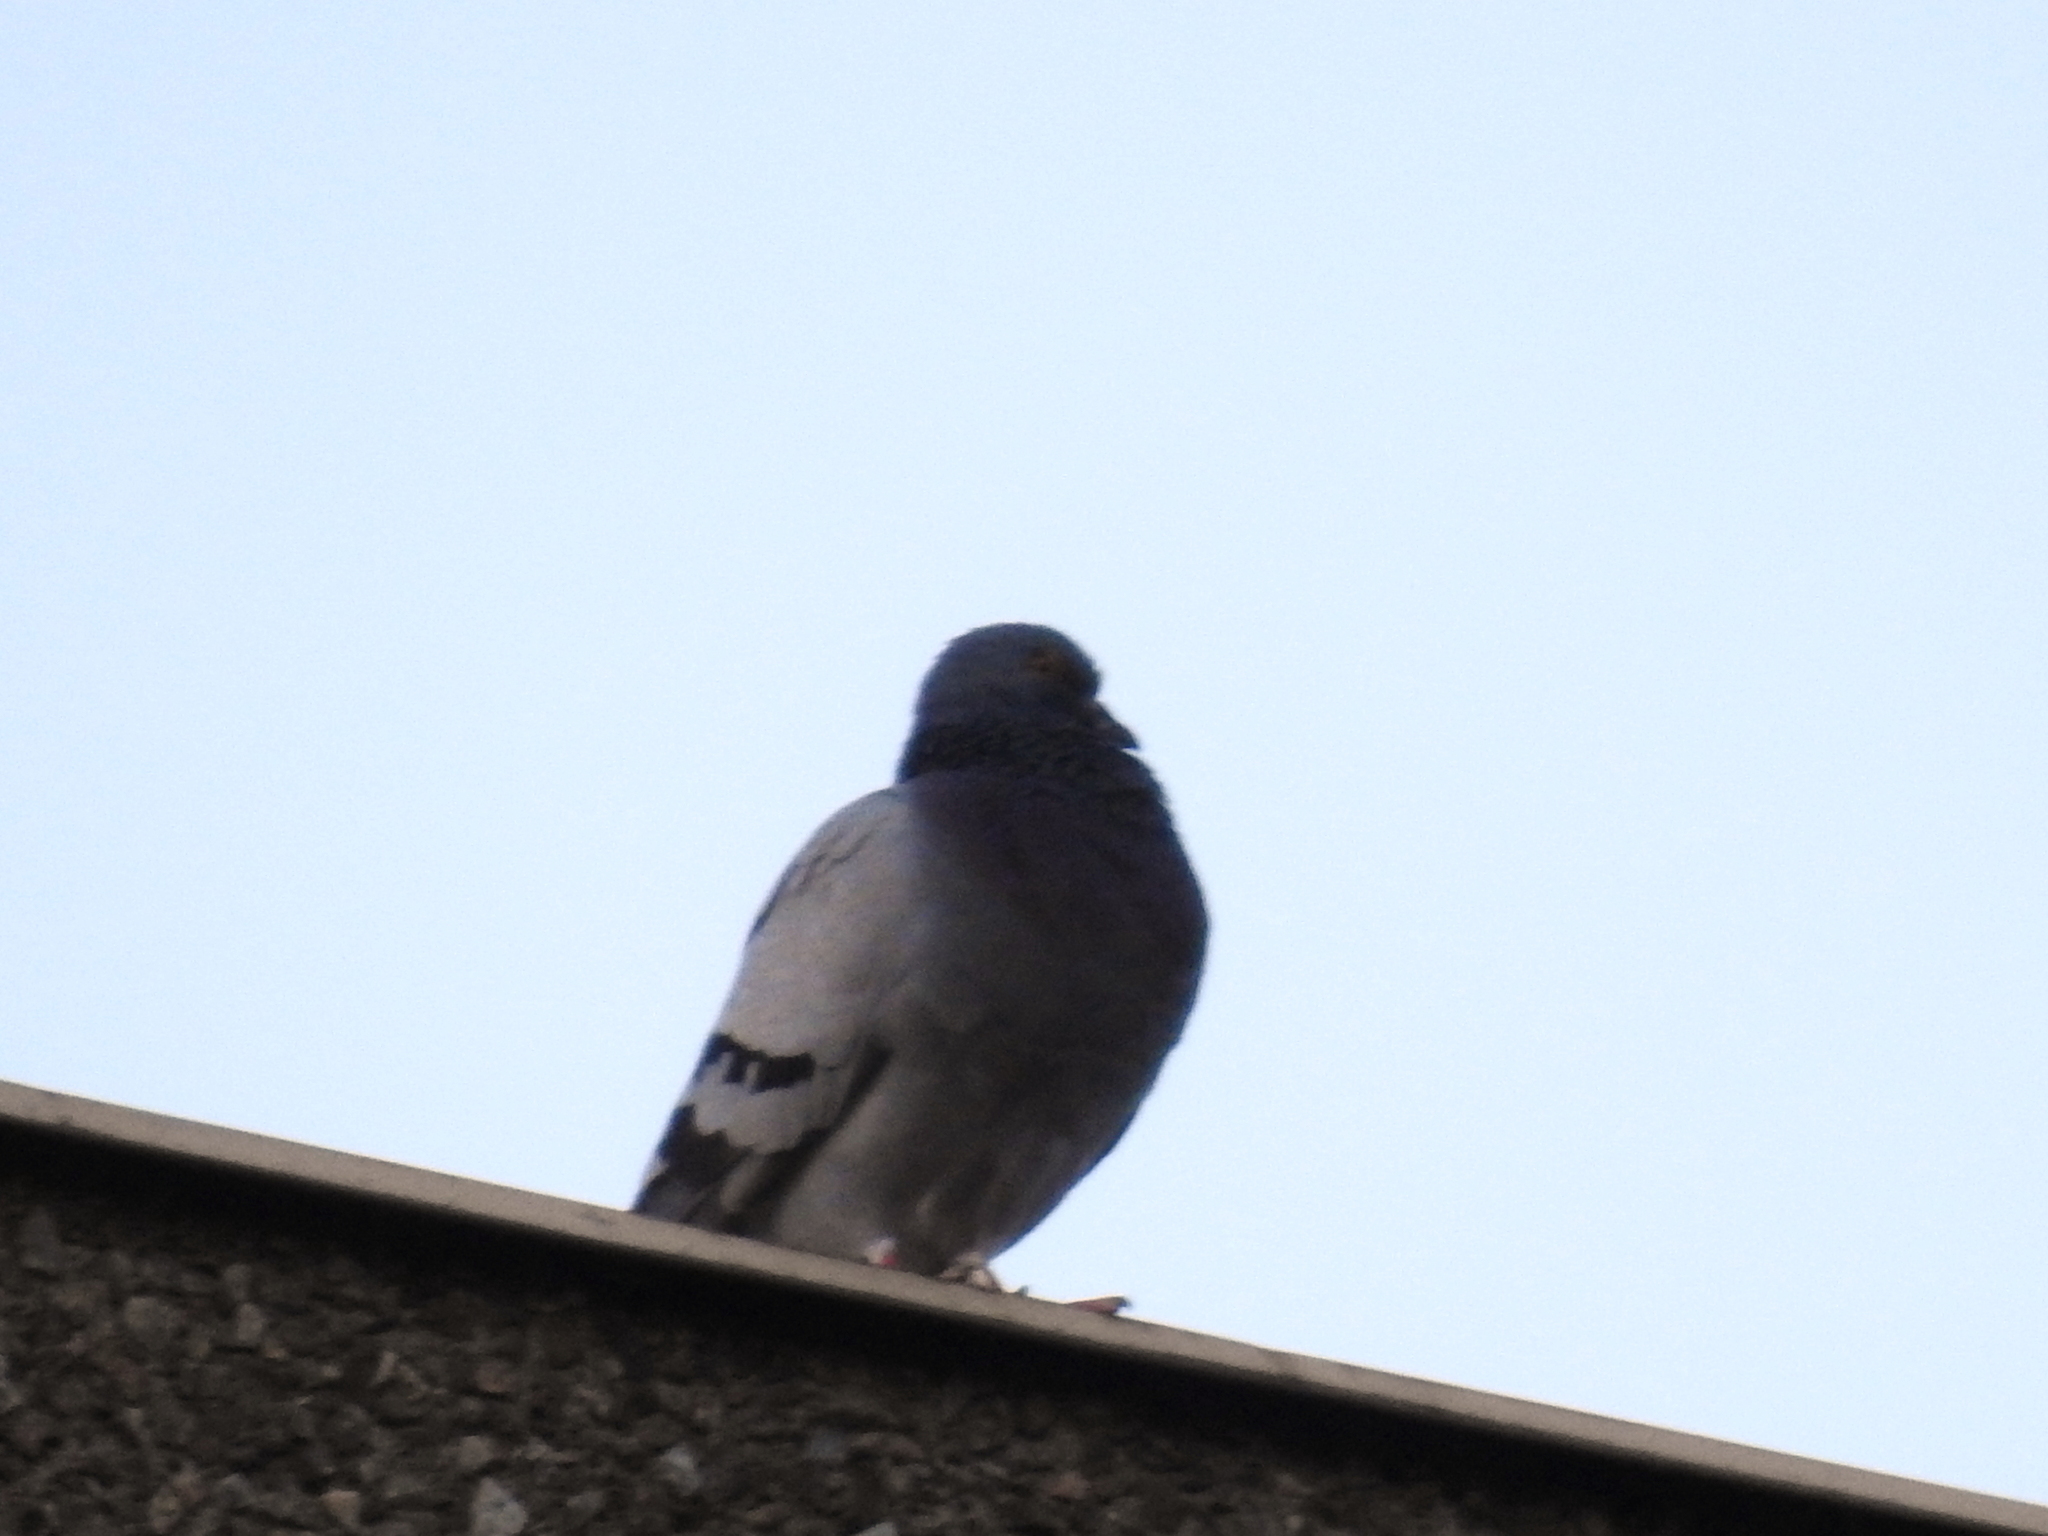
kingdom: Animalia
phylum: Chordata
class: Aves
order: Columbiformes
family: Columbidae
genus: Columba
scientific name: Columba livia
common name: Rock pigeon
